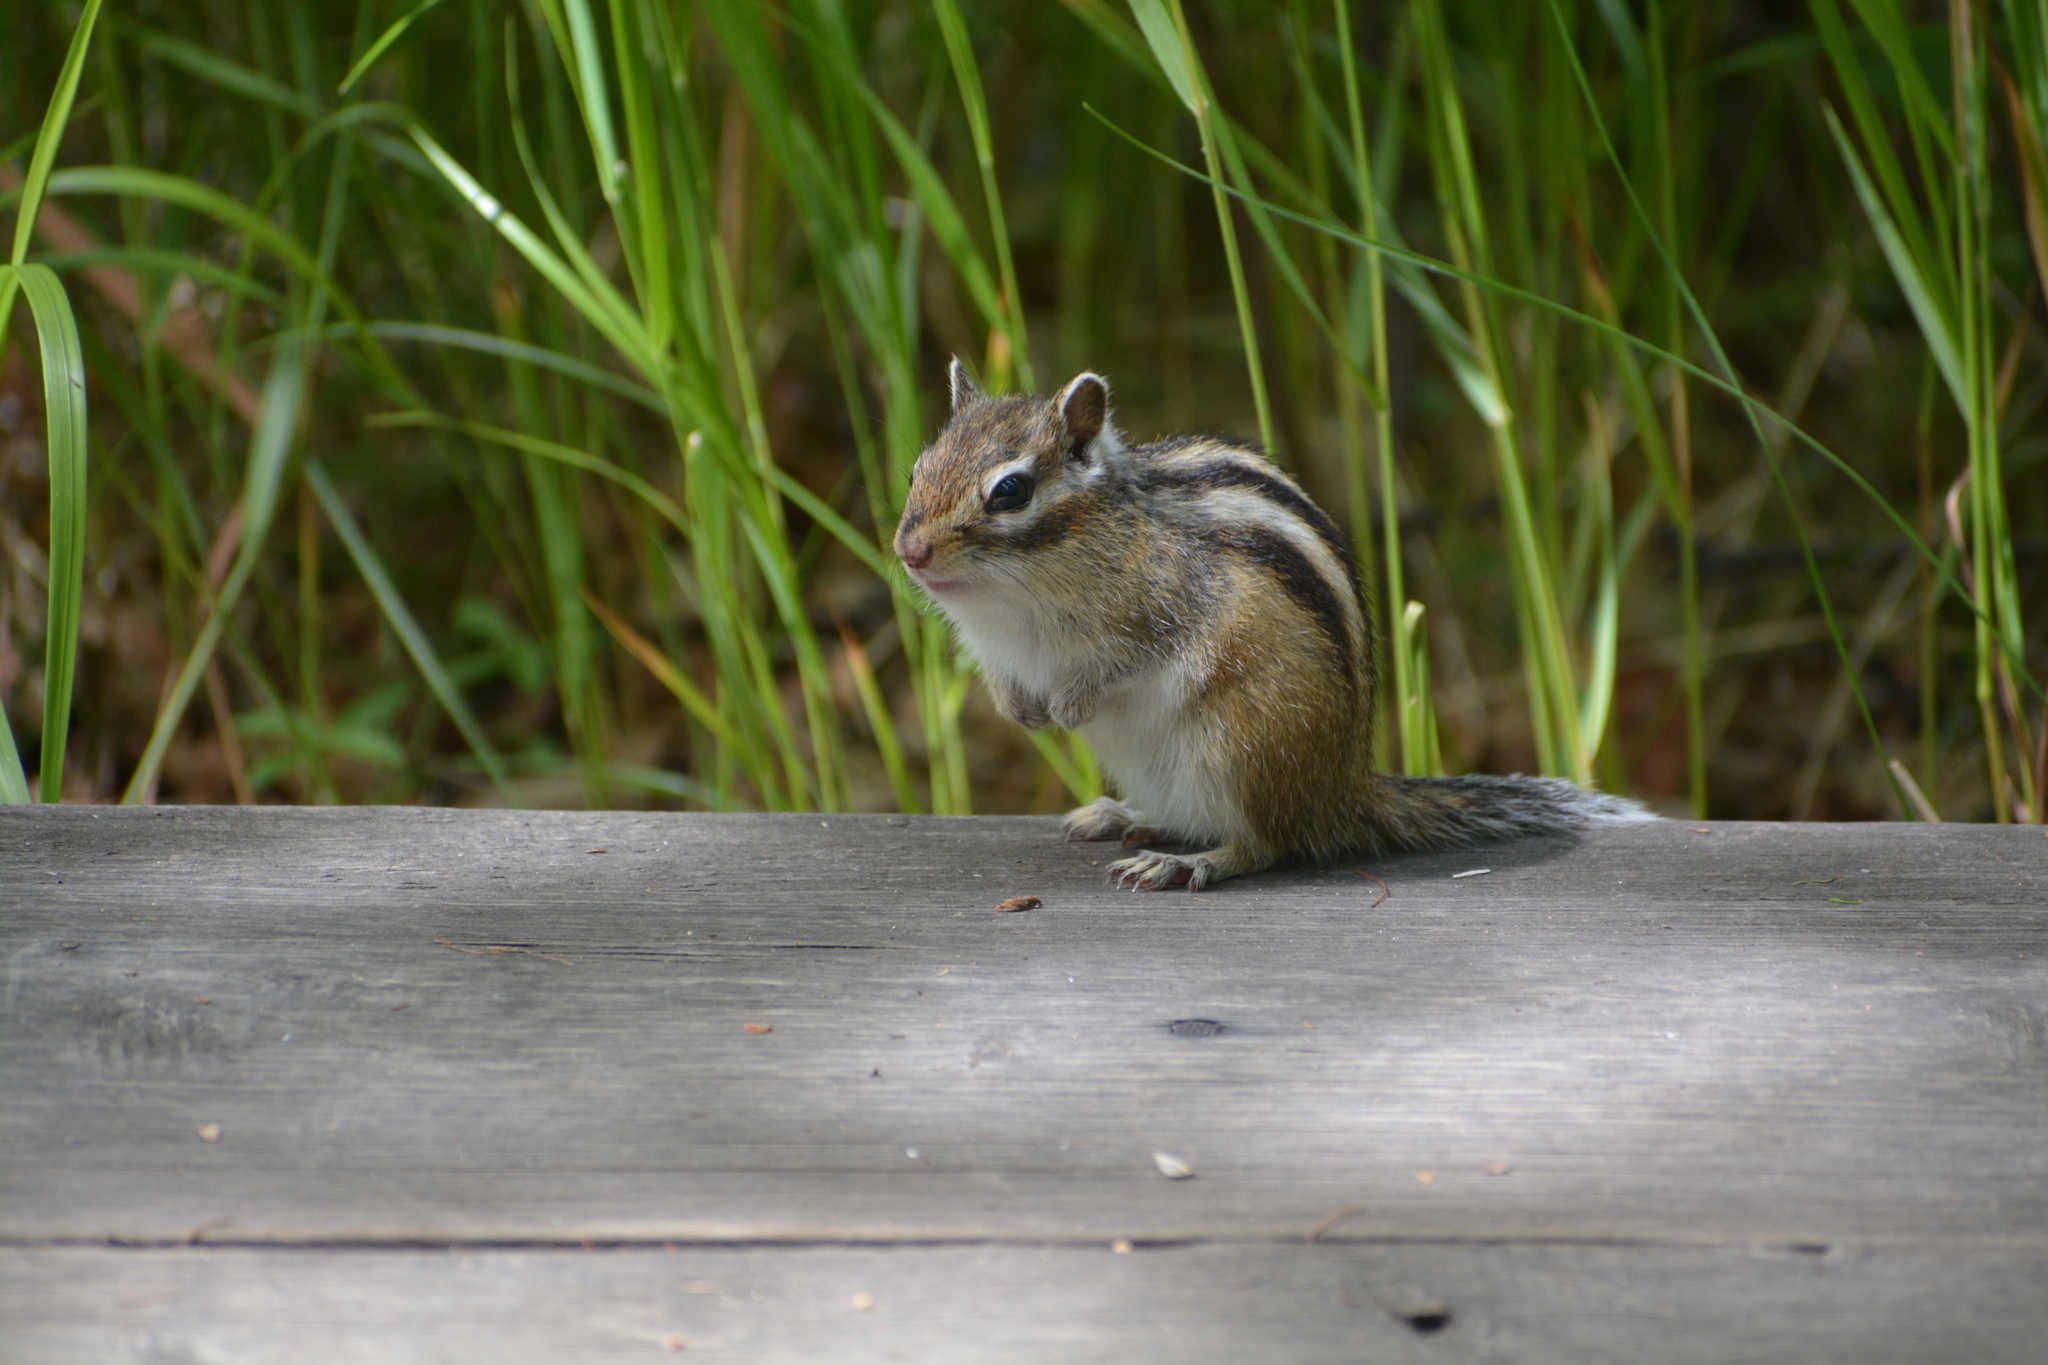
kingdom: Animalia
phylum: Chordata
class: Mammalia
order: Rodentia
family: Sciuridae
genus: Tamias
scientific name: Tamias sibiricus
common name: Siberian chipmunk
